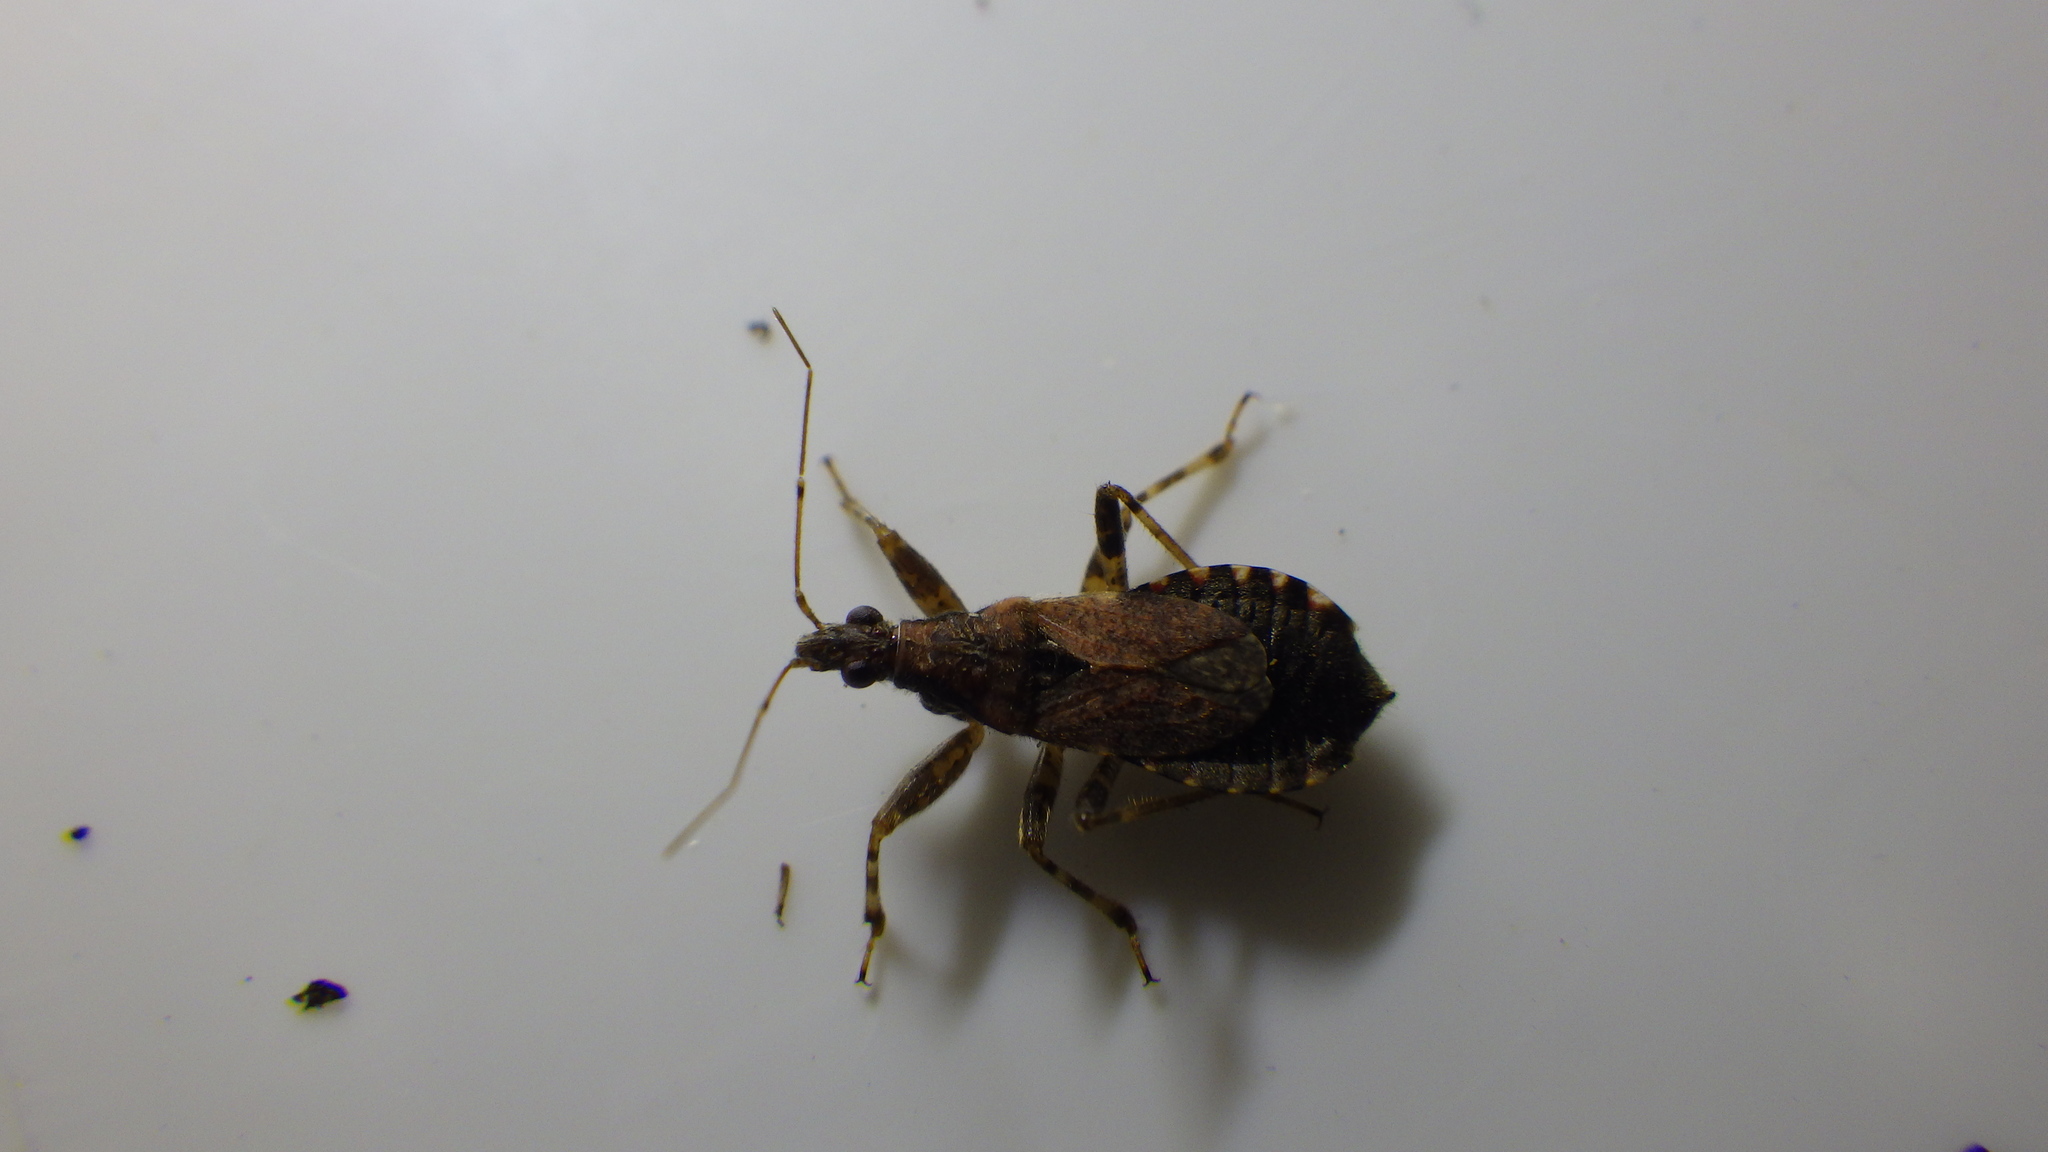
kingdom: Animalia
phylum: Arthropoda
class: Insecta
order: Hemiptera
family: Nabidae
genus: Himacerus
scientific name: Himacerus mirmicoides
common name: Ant damsel bug
